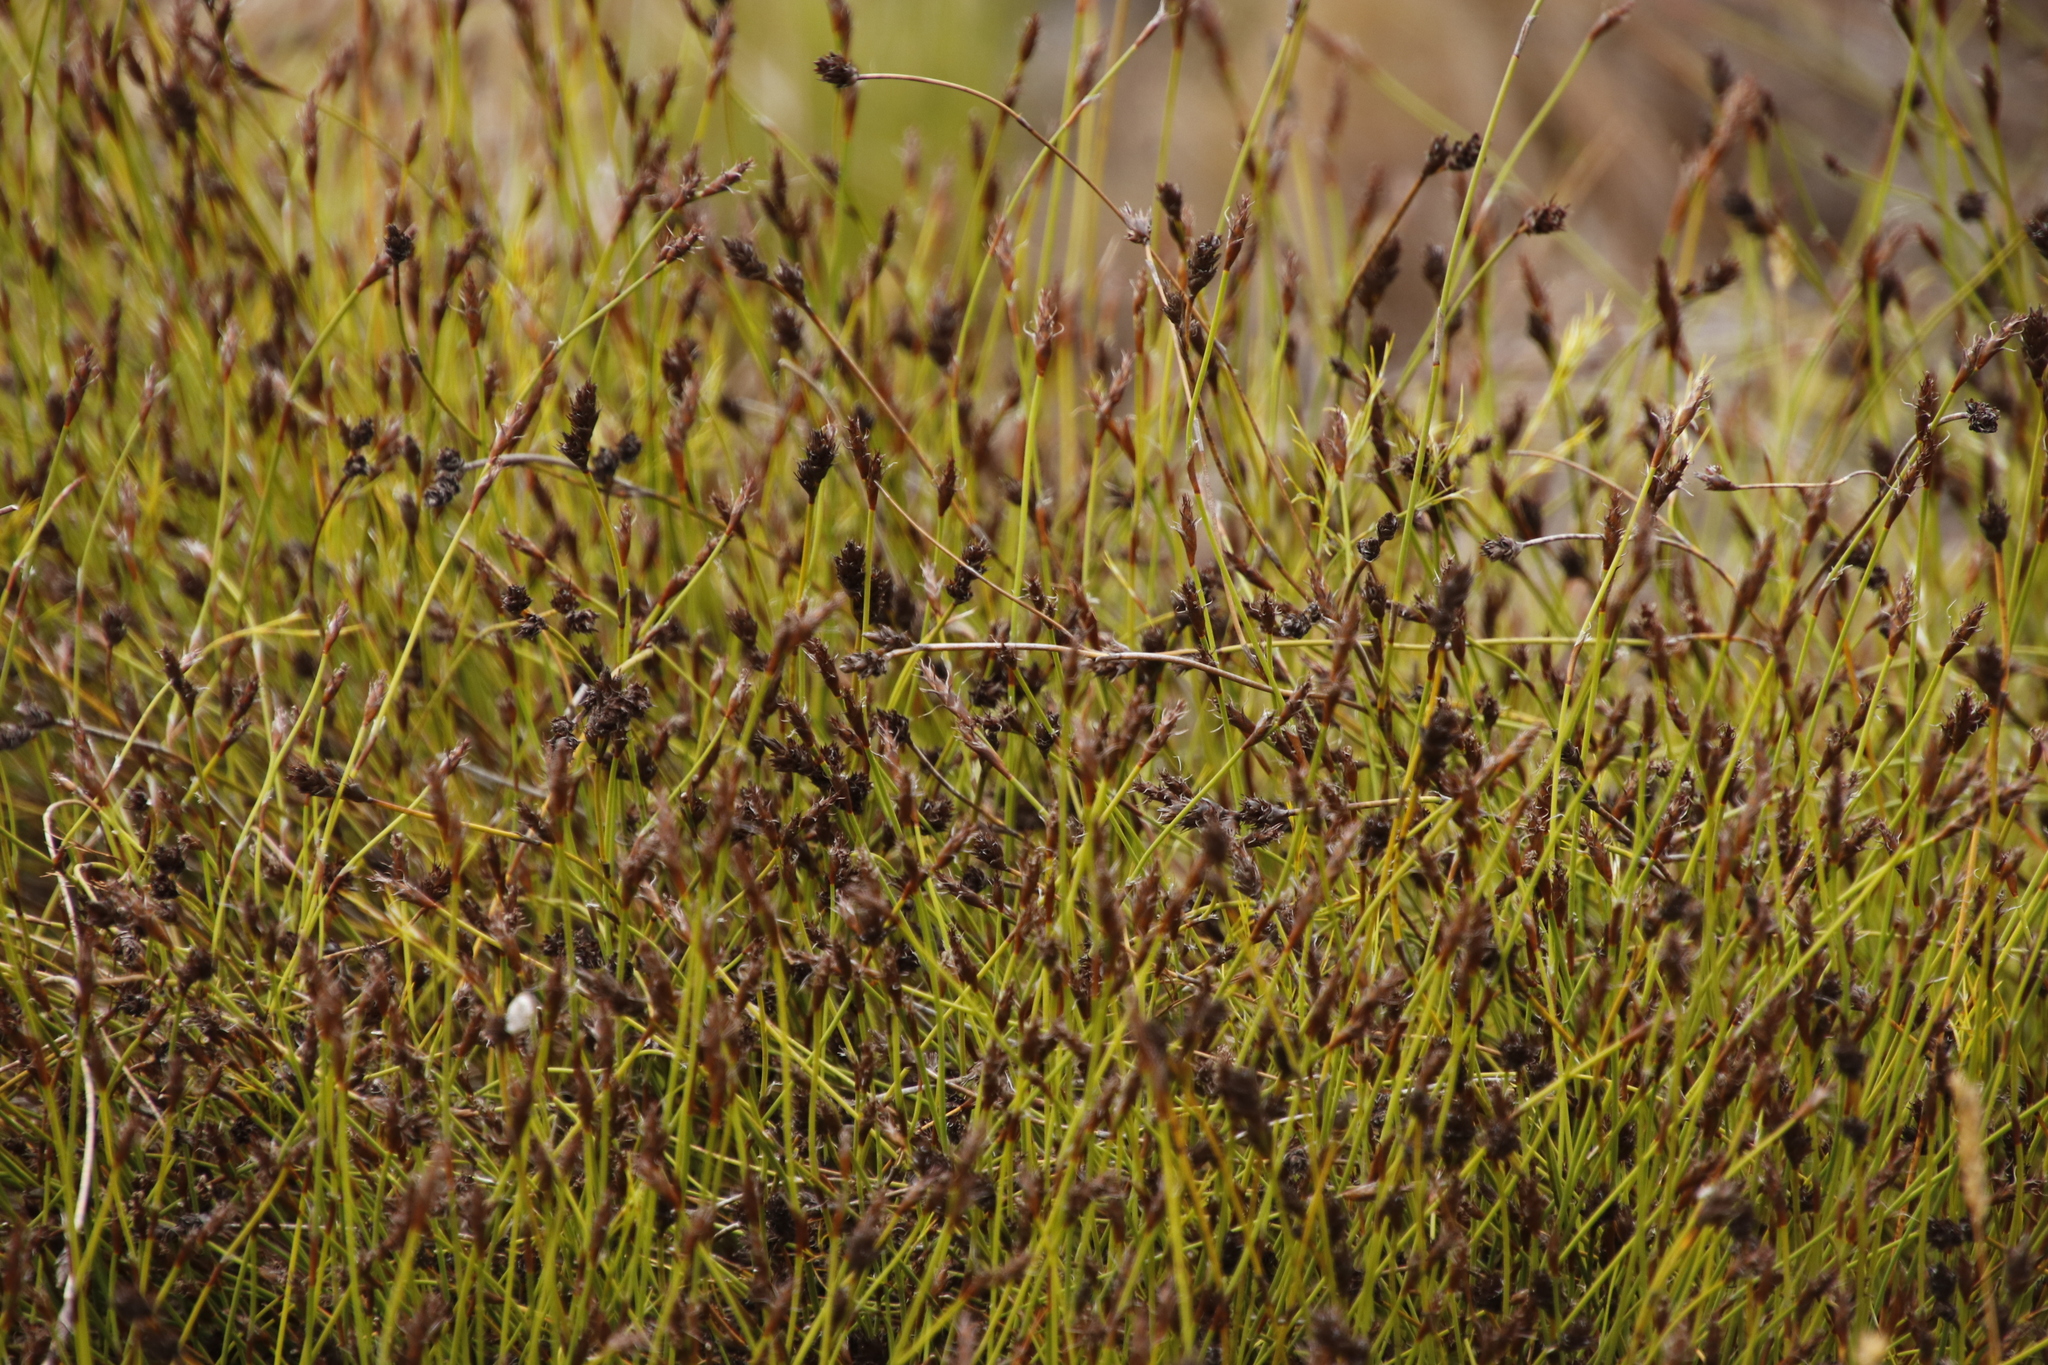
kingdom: Plantae
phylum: Tracheophyta
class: Liliopsida
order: Poales
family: Restionaceae
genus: Restio
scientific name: Restio capensis
